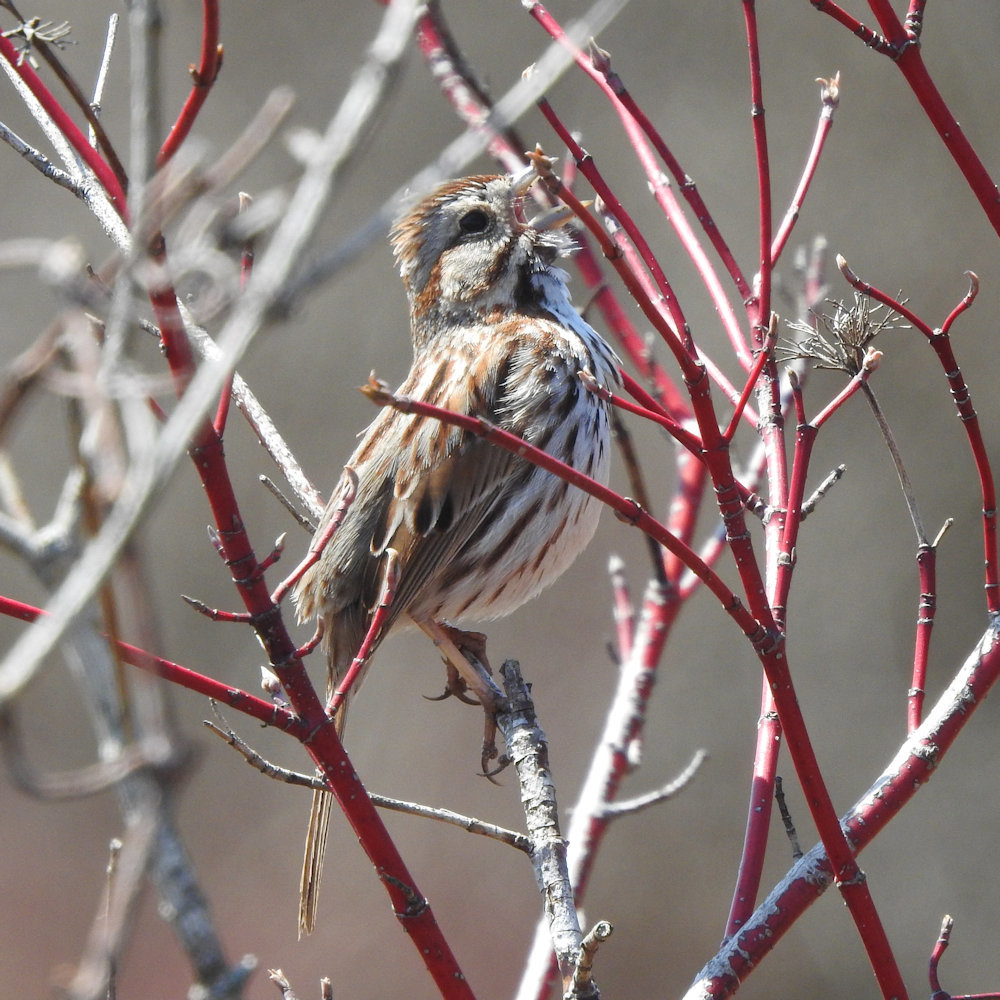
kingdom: Animalia
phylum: Chordata
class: Aves
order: Passeriformes
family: Passerellidae
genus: Melospiza
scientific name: Melospiza melodia
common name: Song sparrow
